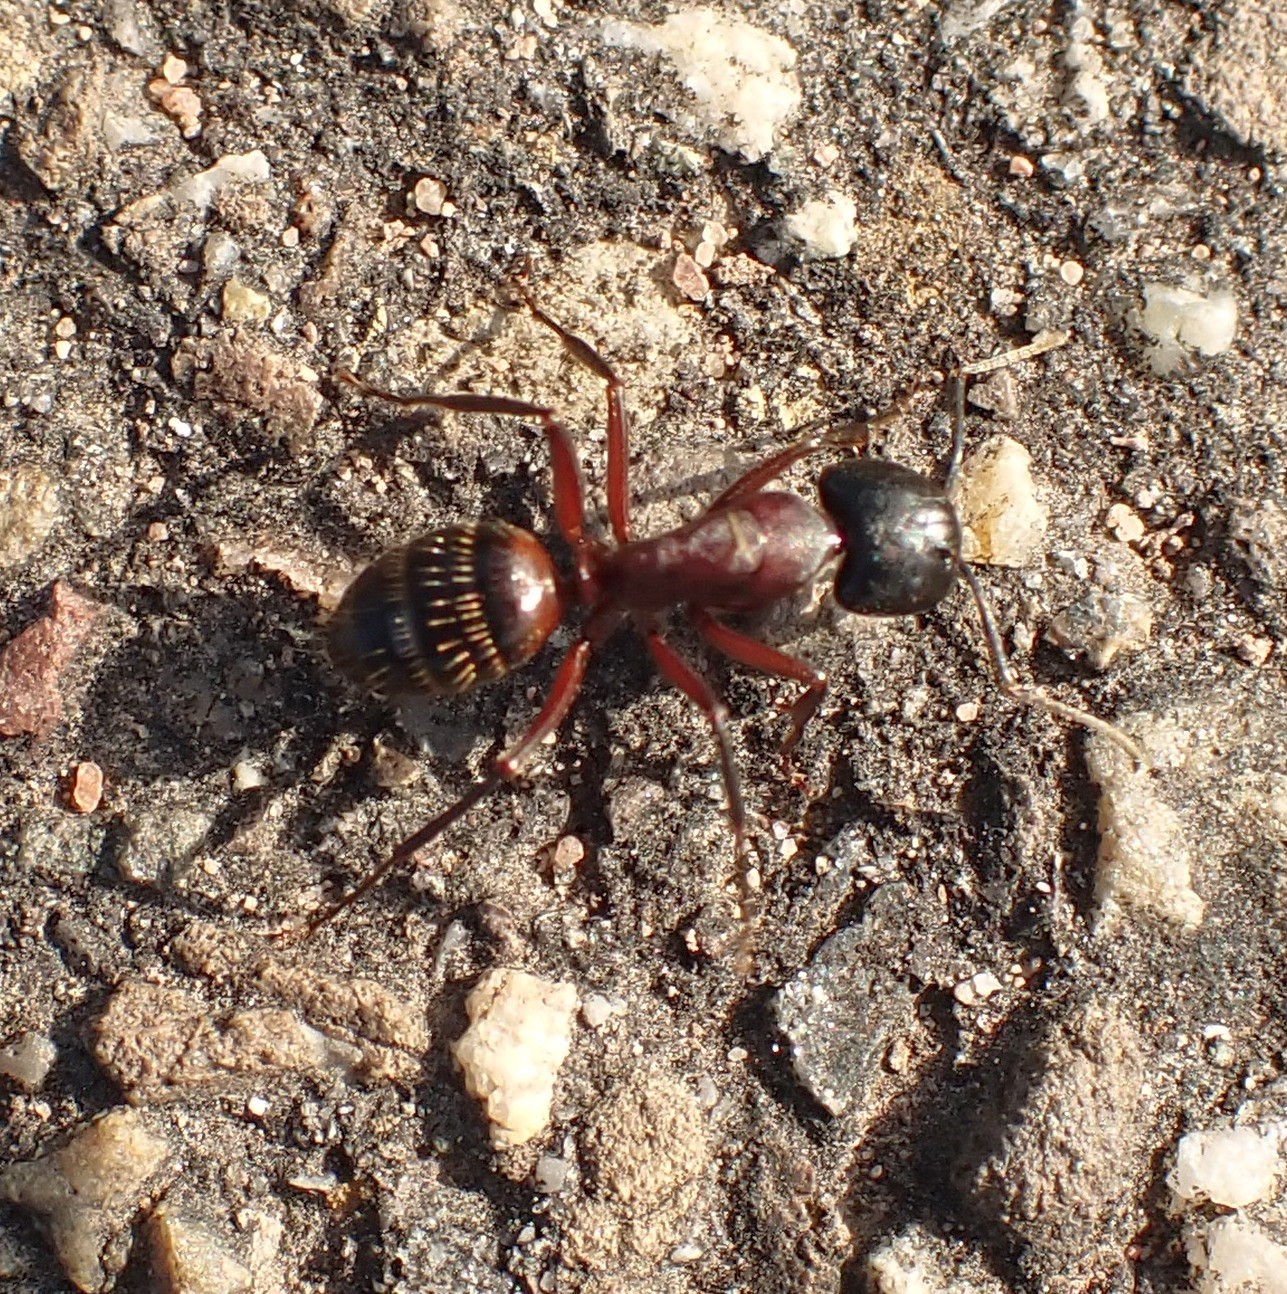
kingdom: Animalia
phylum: Arthropoda
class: Insecta
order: Hymenoptera
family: Formicidae
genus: Camponotus
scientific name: Camponotus ligniperdus
